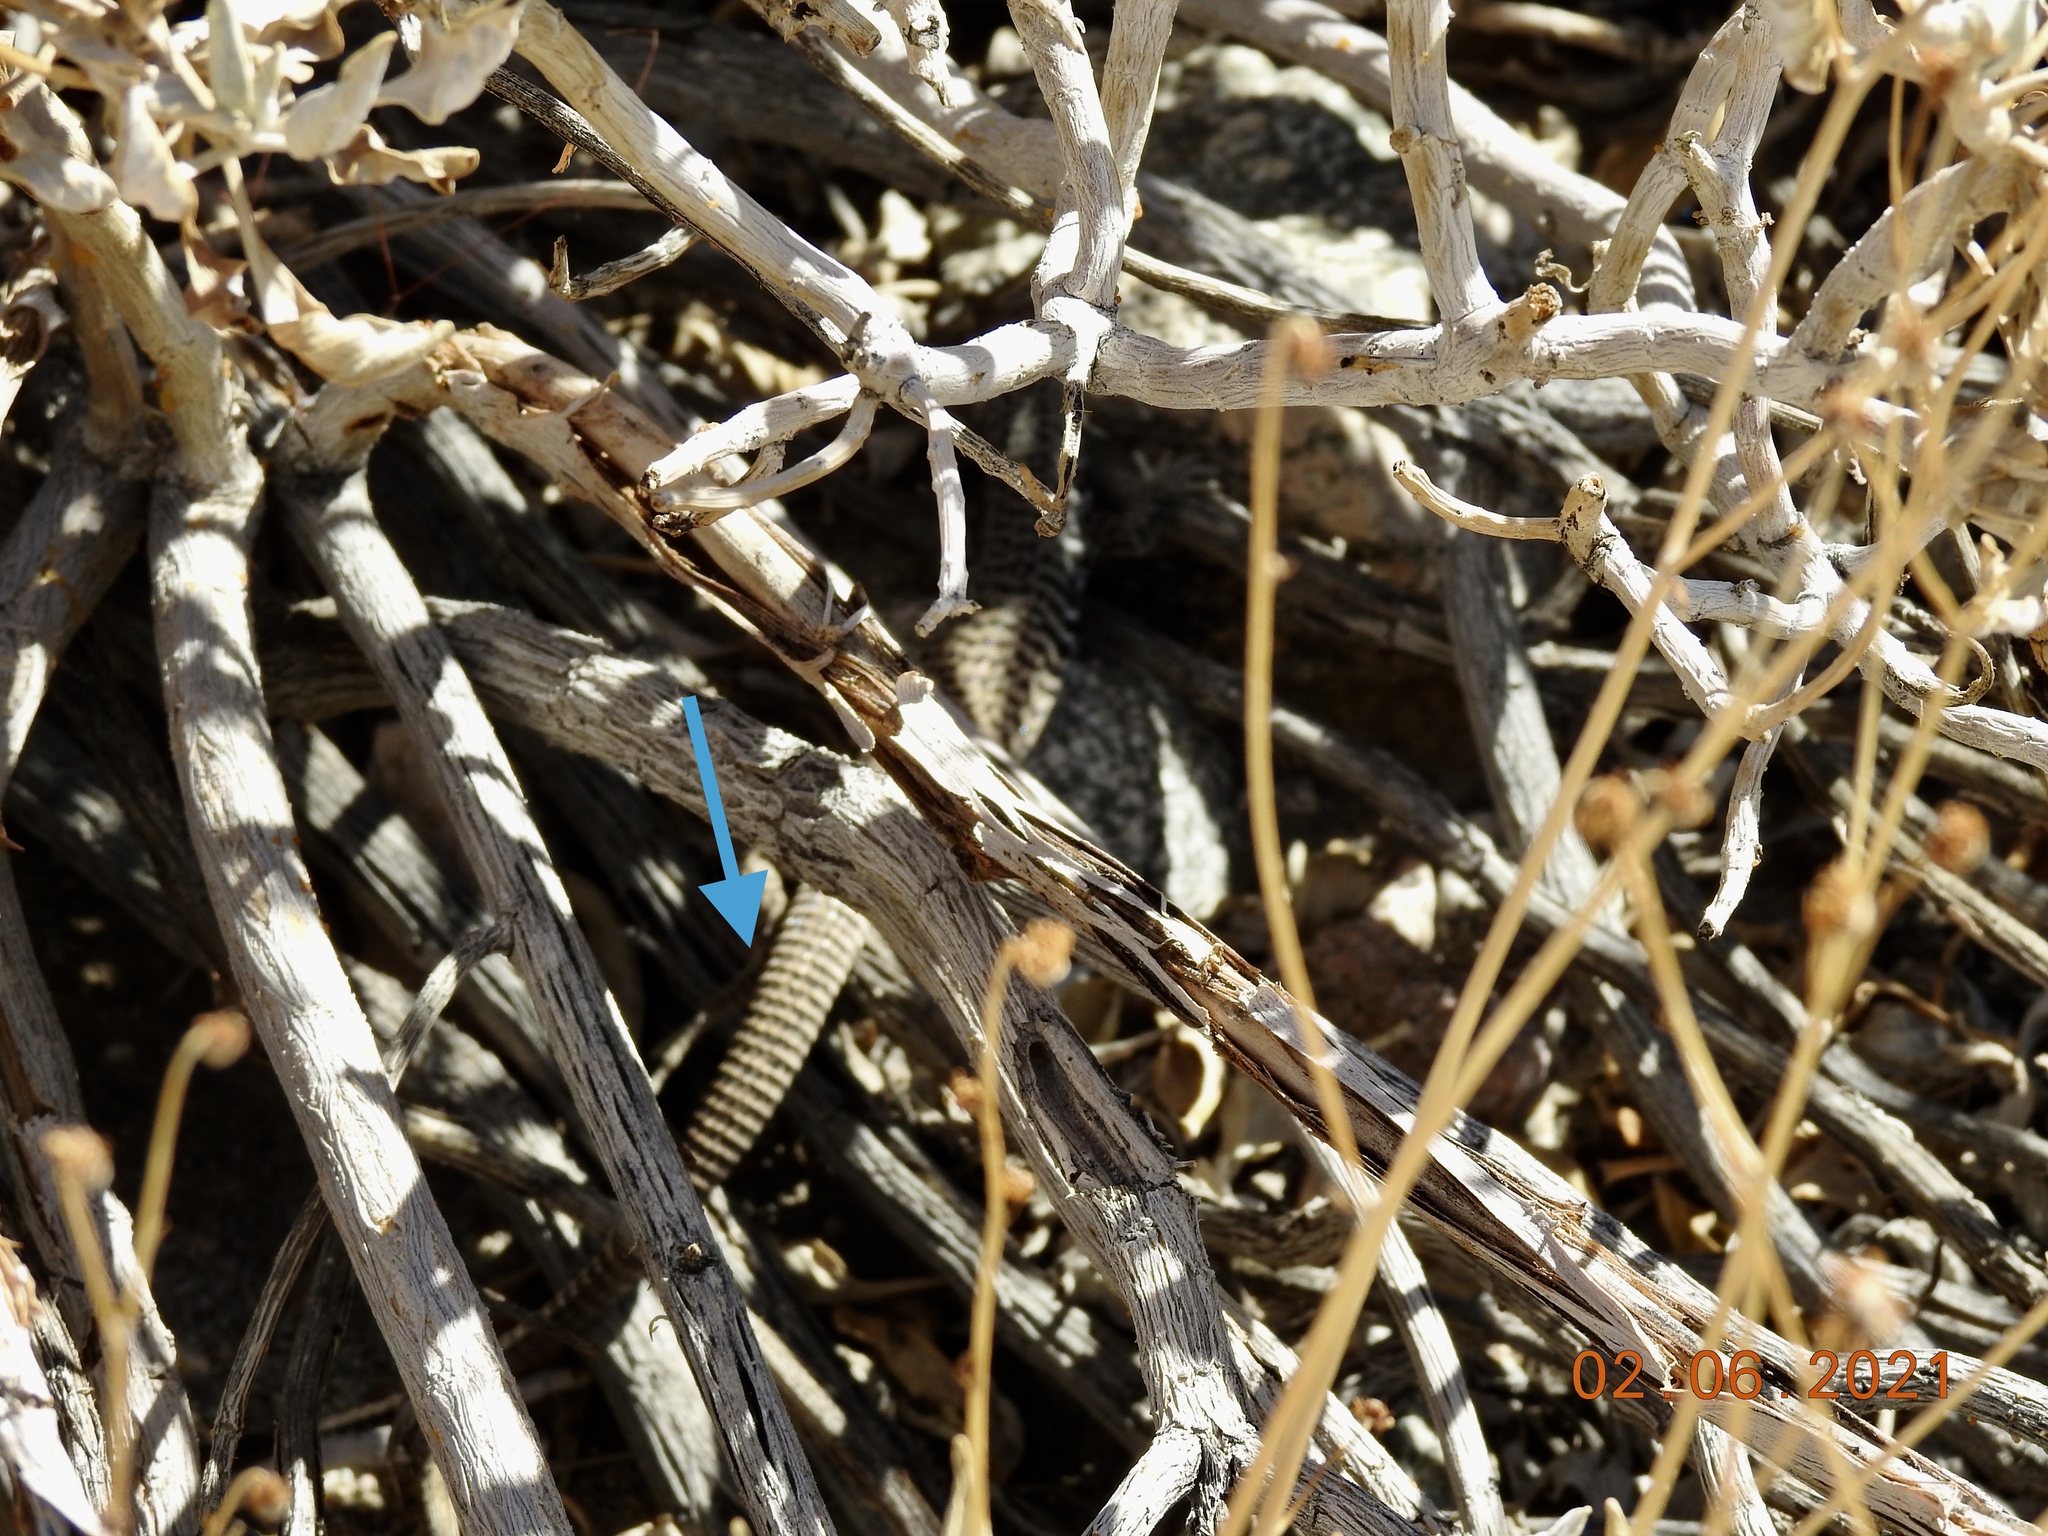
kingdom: Animalia
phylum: Chordata
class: Squamata
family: Teiidae
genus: Aspidoscelis
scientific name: Aspidoscelis tigris
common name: Tiger whiptail
